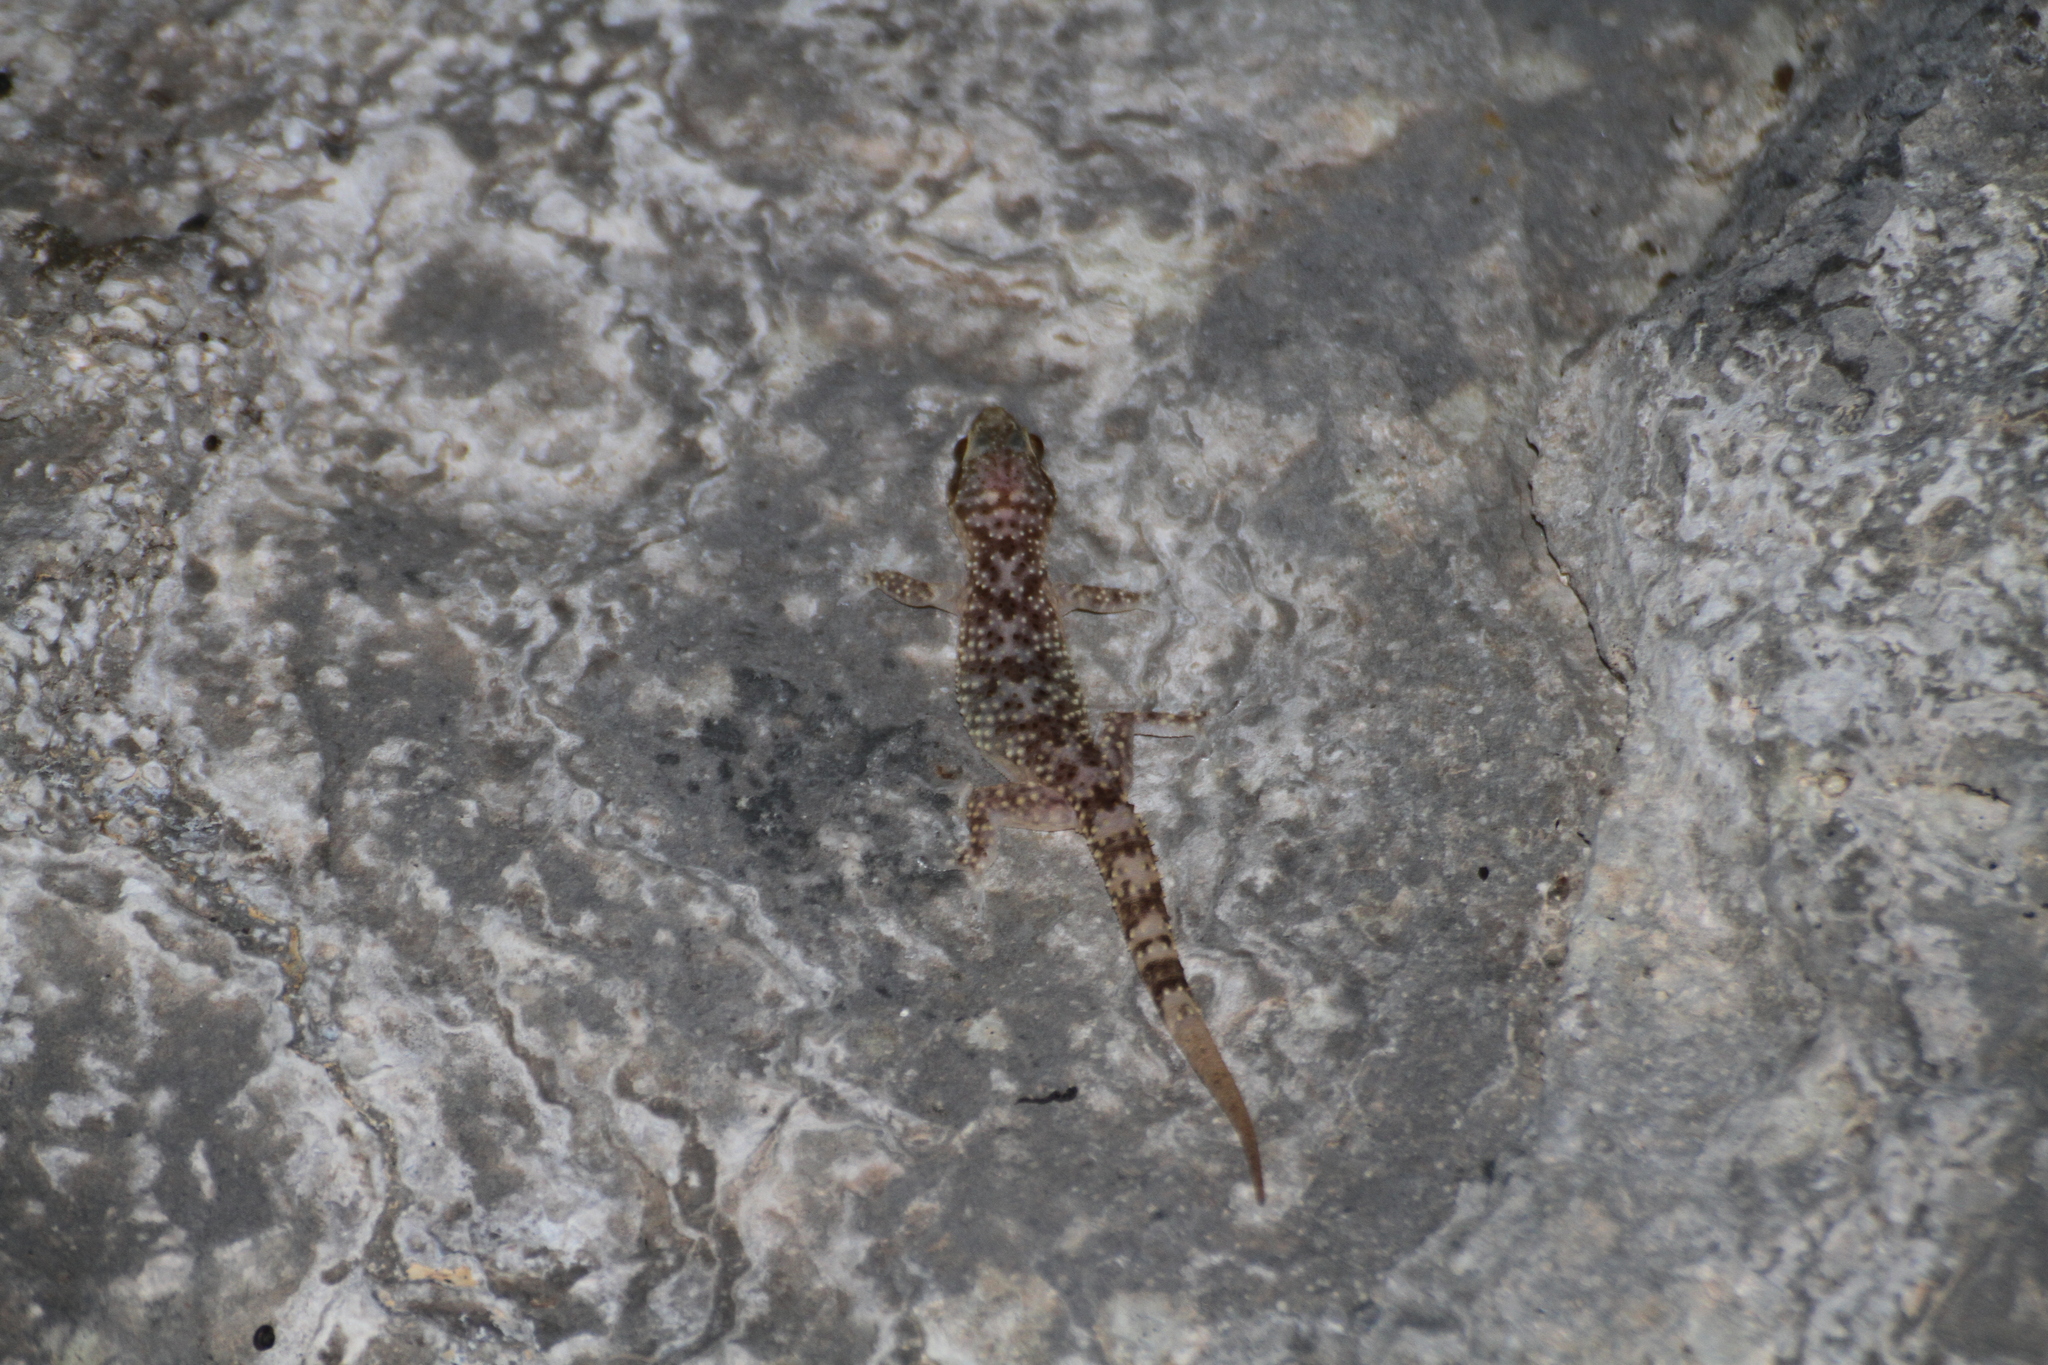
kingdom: Animalia
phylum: Chordata
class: Squamata
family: Gekkonidae
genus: Hemidactylus
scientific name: Hemidactylus turcicus
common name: Turkish gecko
